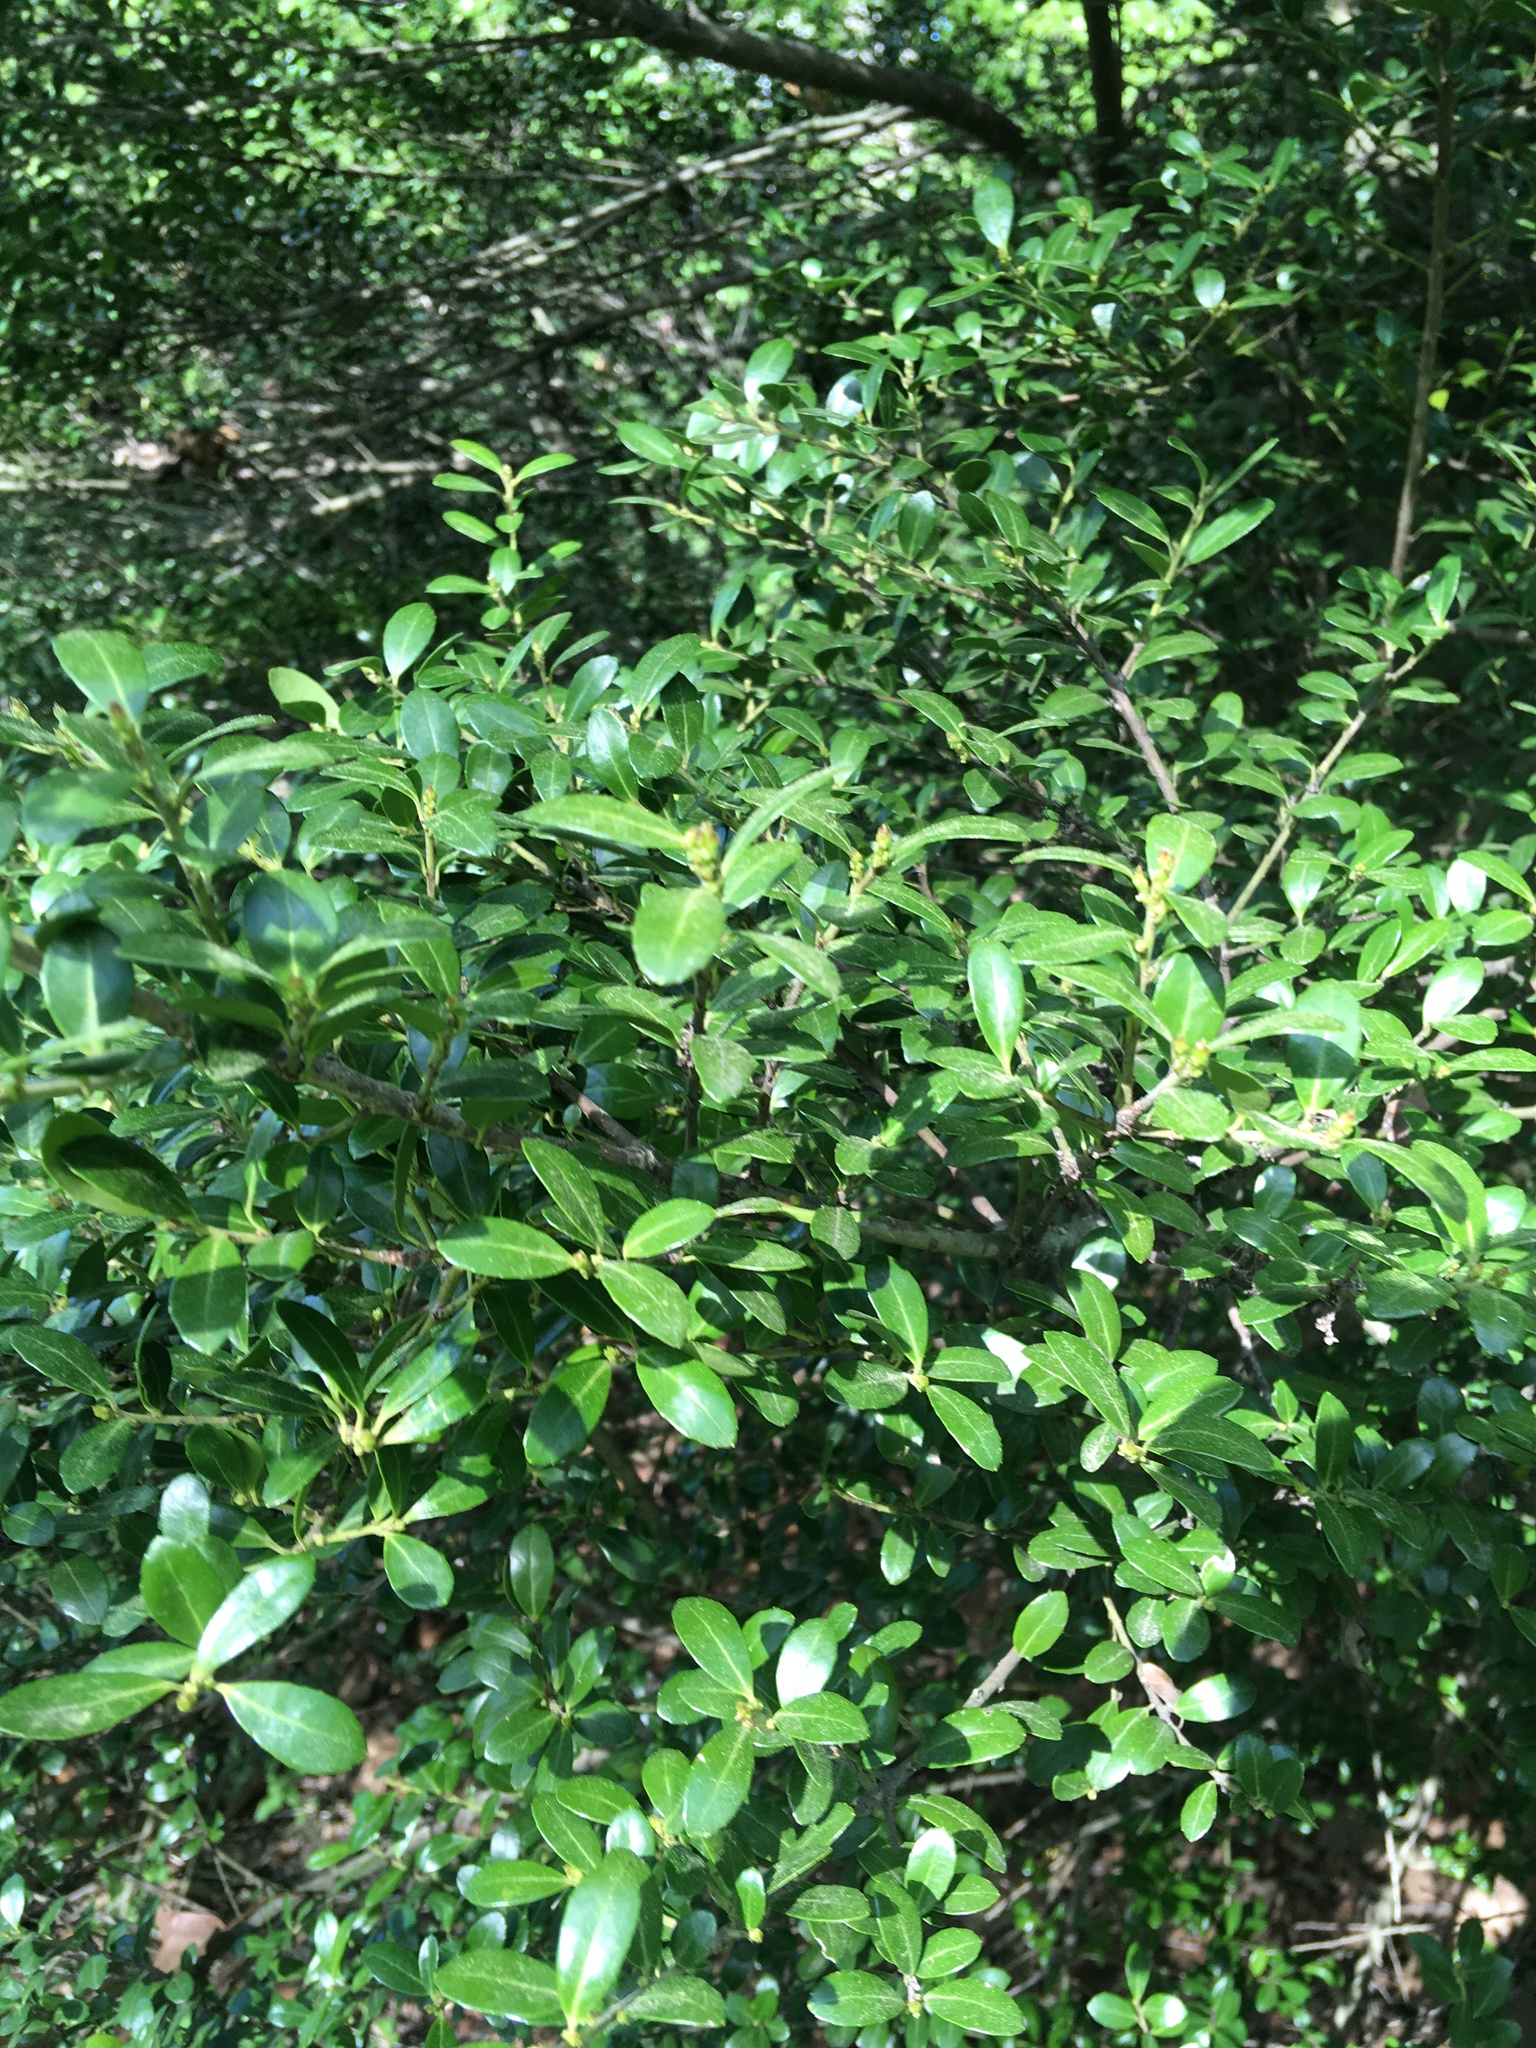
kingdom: Plantae
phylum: Tracheophyta
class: Magnoliopsida
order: Aquifoliales
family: Aquifoliaceae
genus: Ilex
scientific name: Ilex crenata
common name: Japanese holly
